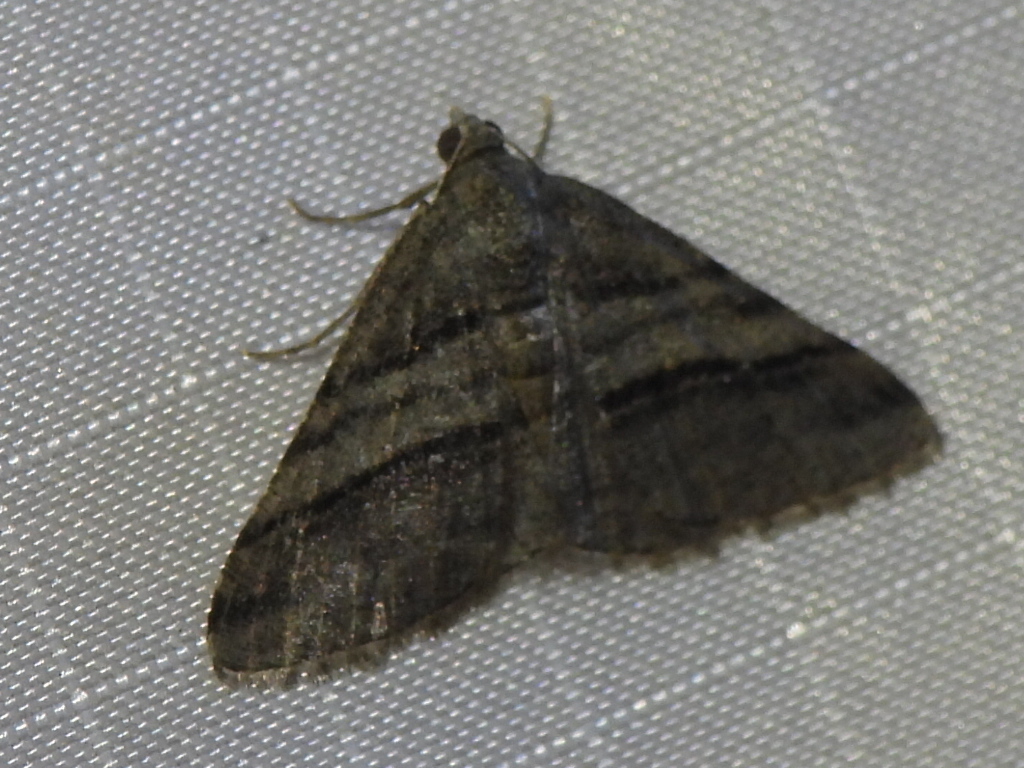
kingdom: Animalia
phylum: Arthropoda
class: Insecta
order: Lepidoptera
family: Geometridae
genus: Digrammia
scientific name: Digrammia atrofasciata
